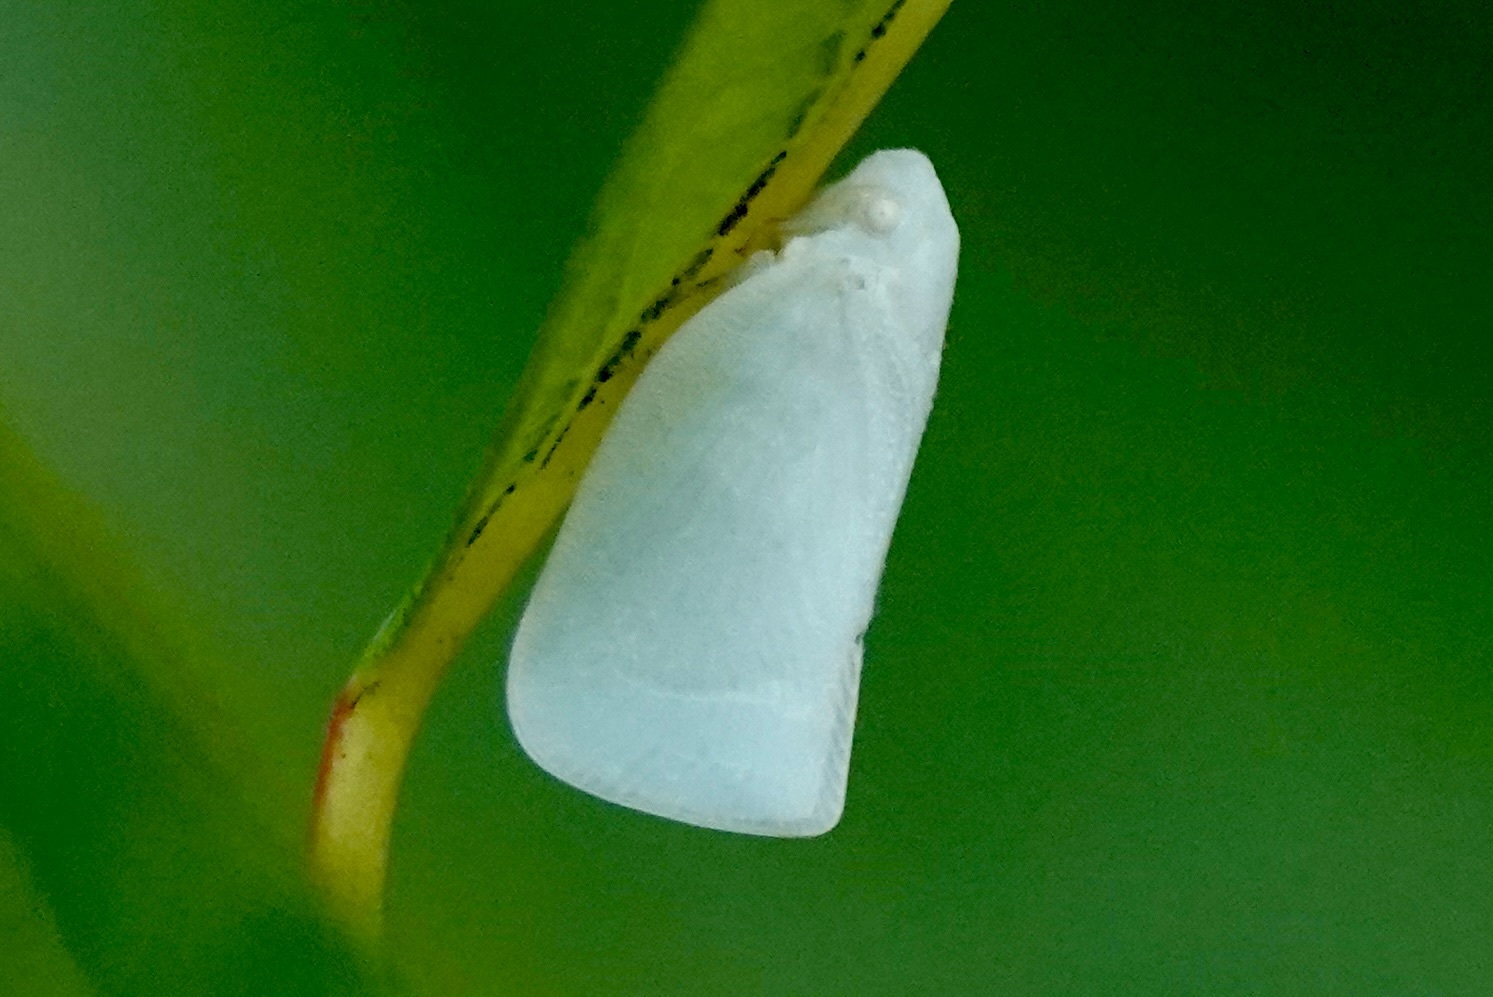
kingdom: Animalia
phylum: Arthropoda
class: Insecta
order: Hemiptera
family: Flatidae
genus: Flatormenis
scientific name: Flatormenis proxima
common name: Northern flatid planthopper
